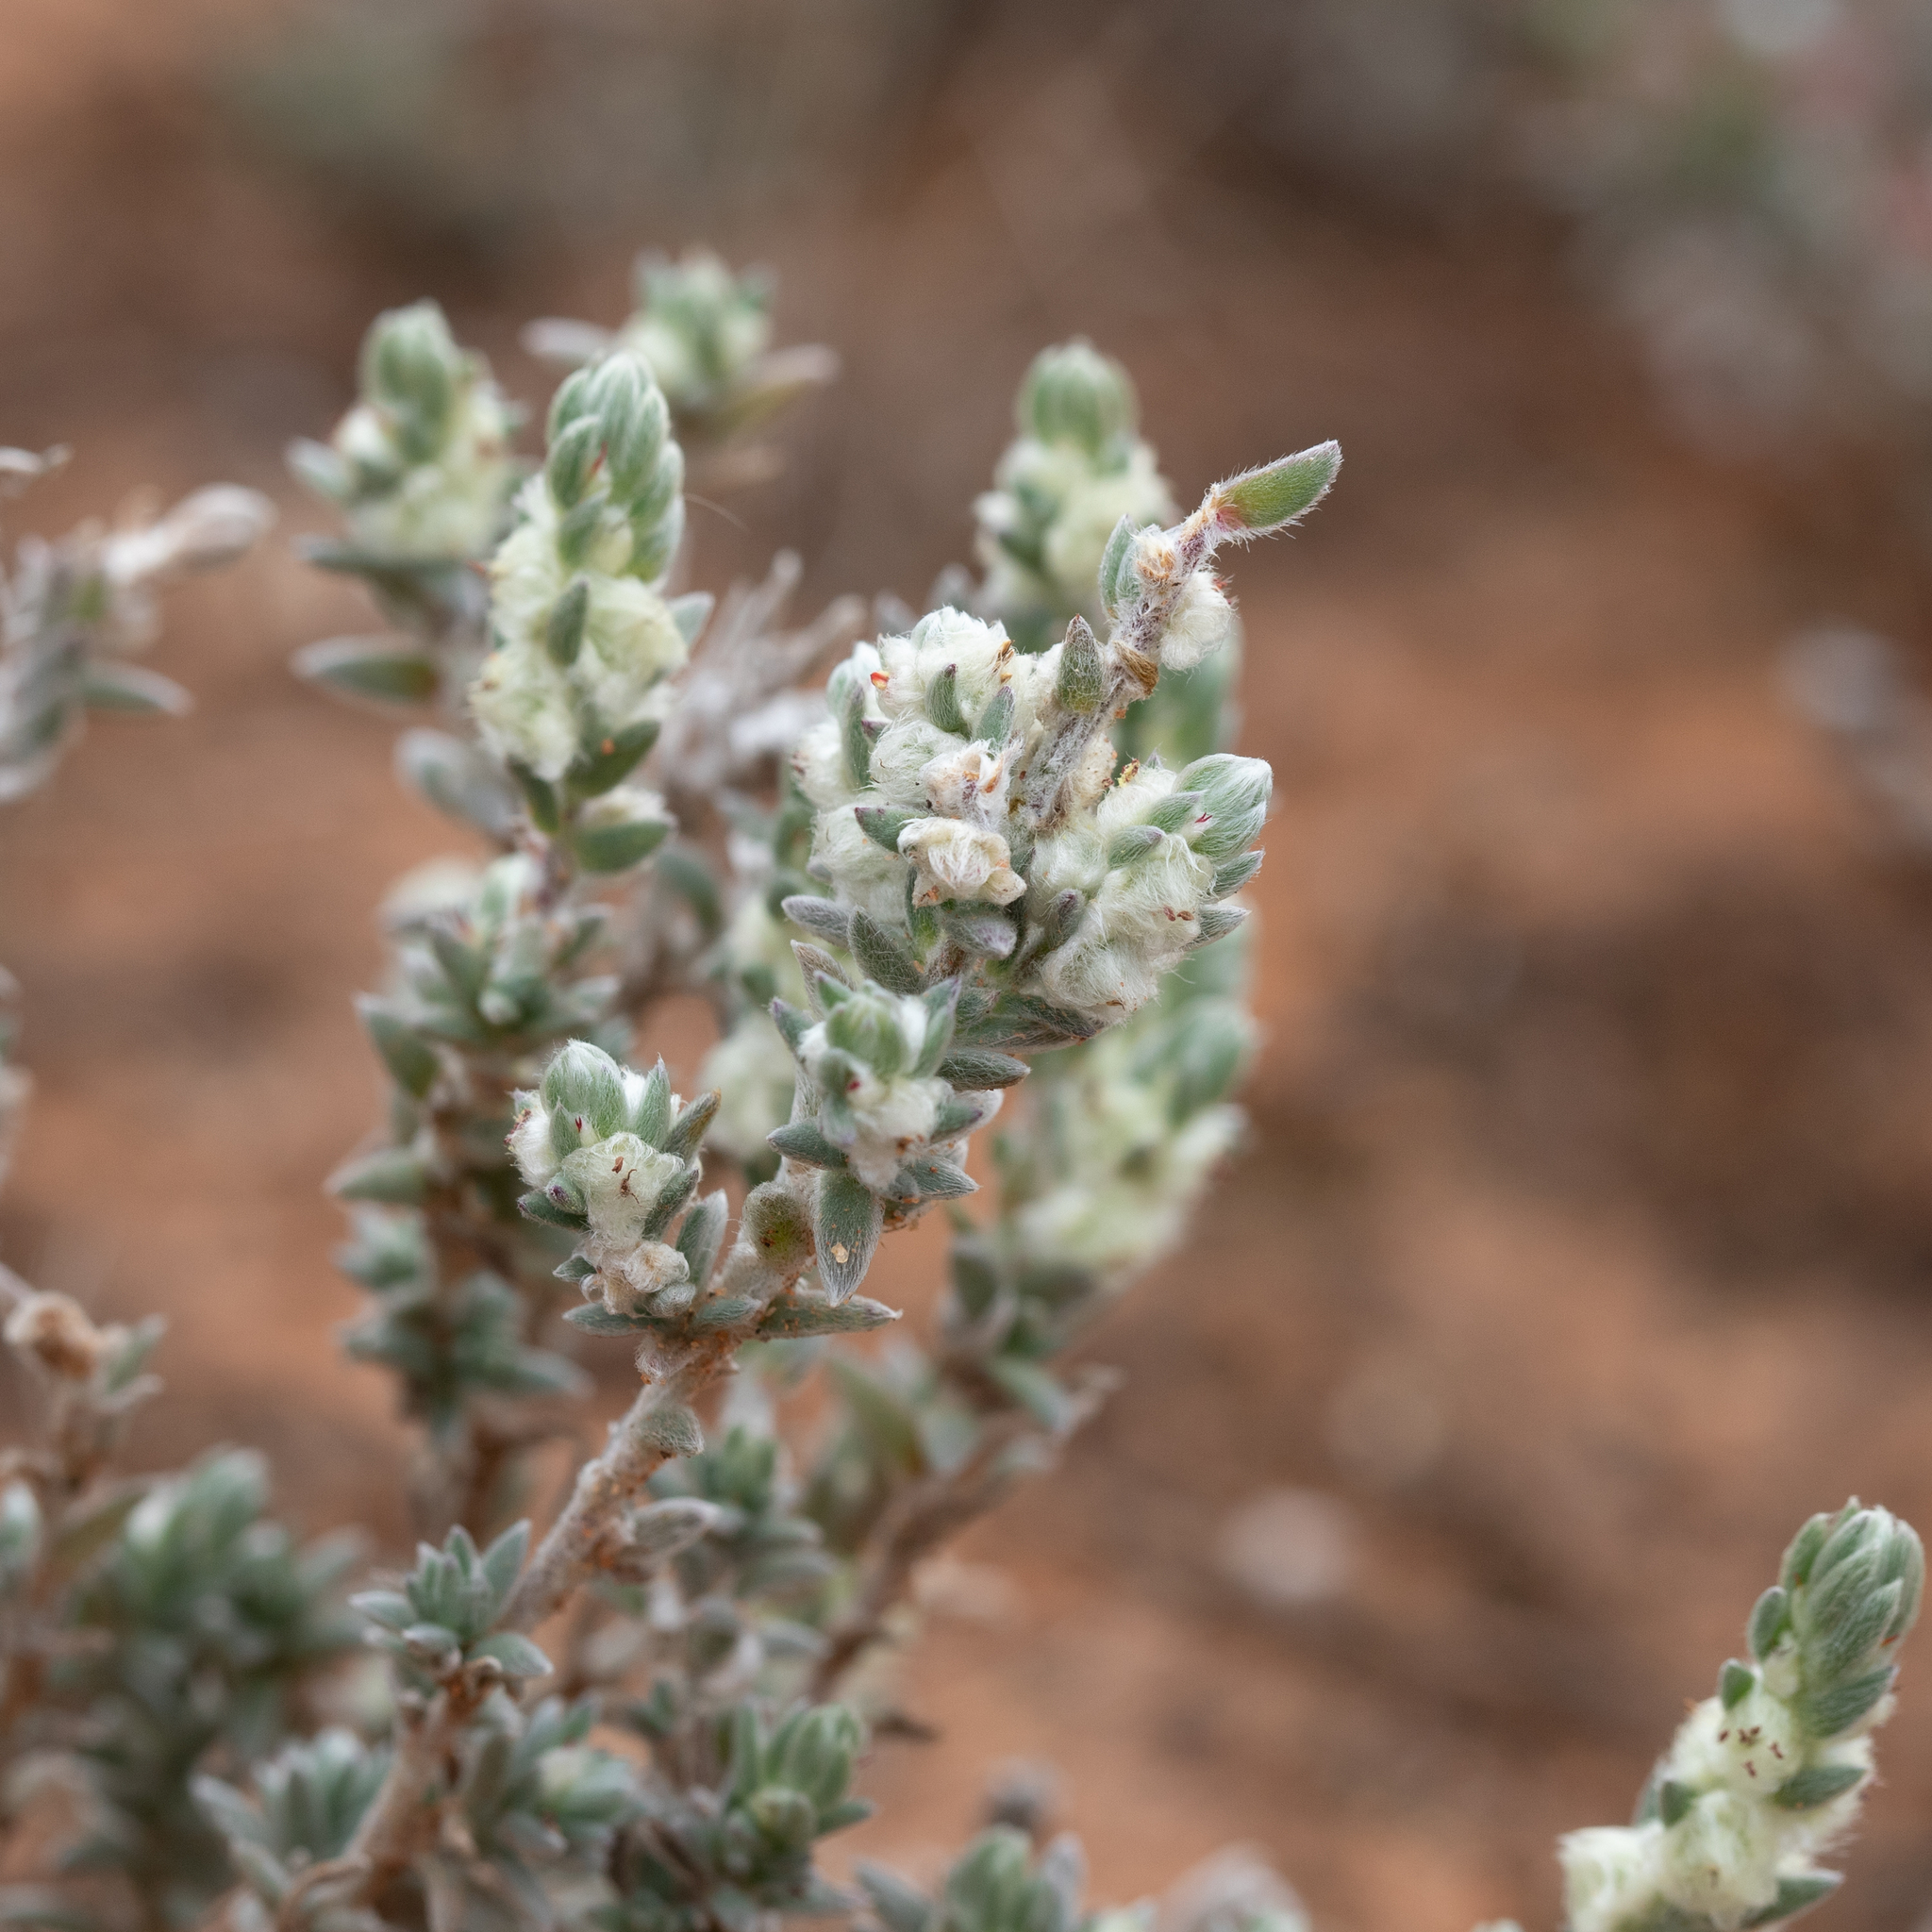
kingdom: Plantae
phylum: Tracheophyta
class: Magnoliopsida
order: Caryophyllales
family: Amaranthaceae
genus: Maireana
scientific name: Maireana sclerolaenoides
